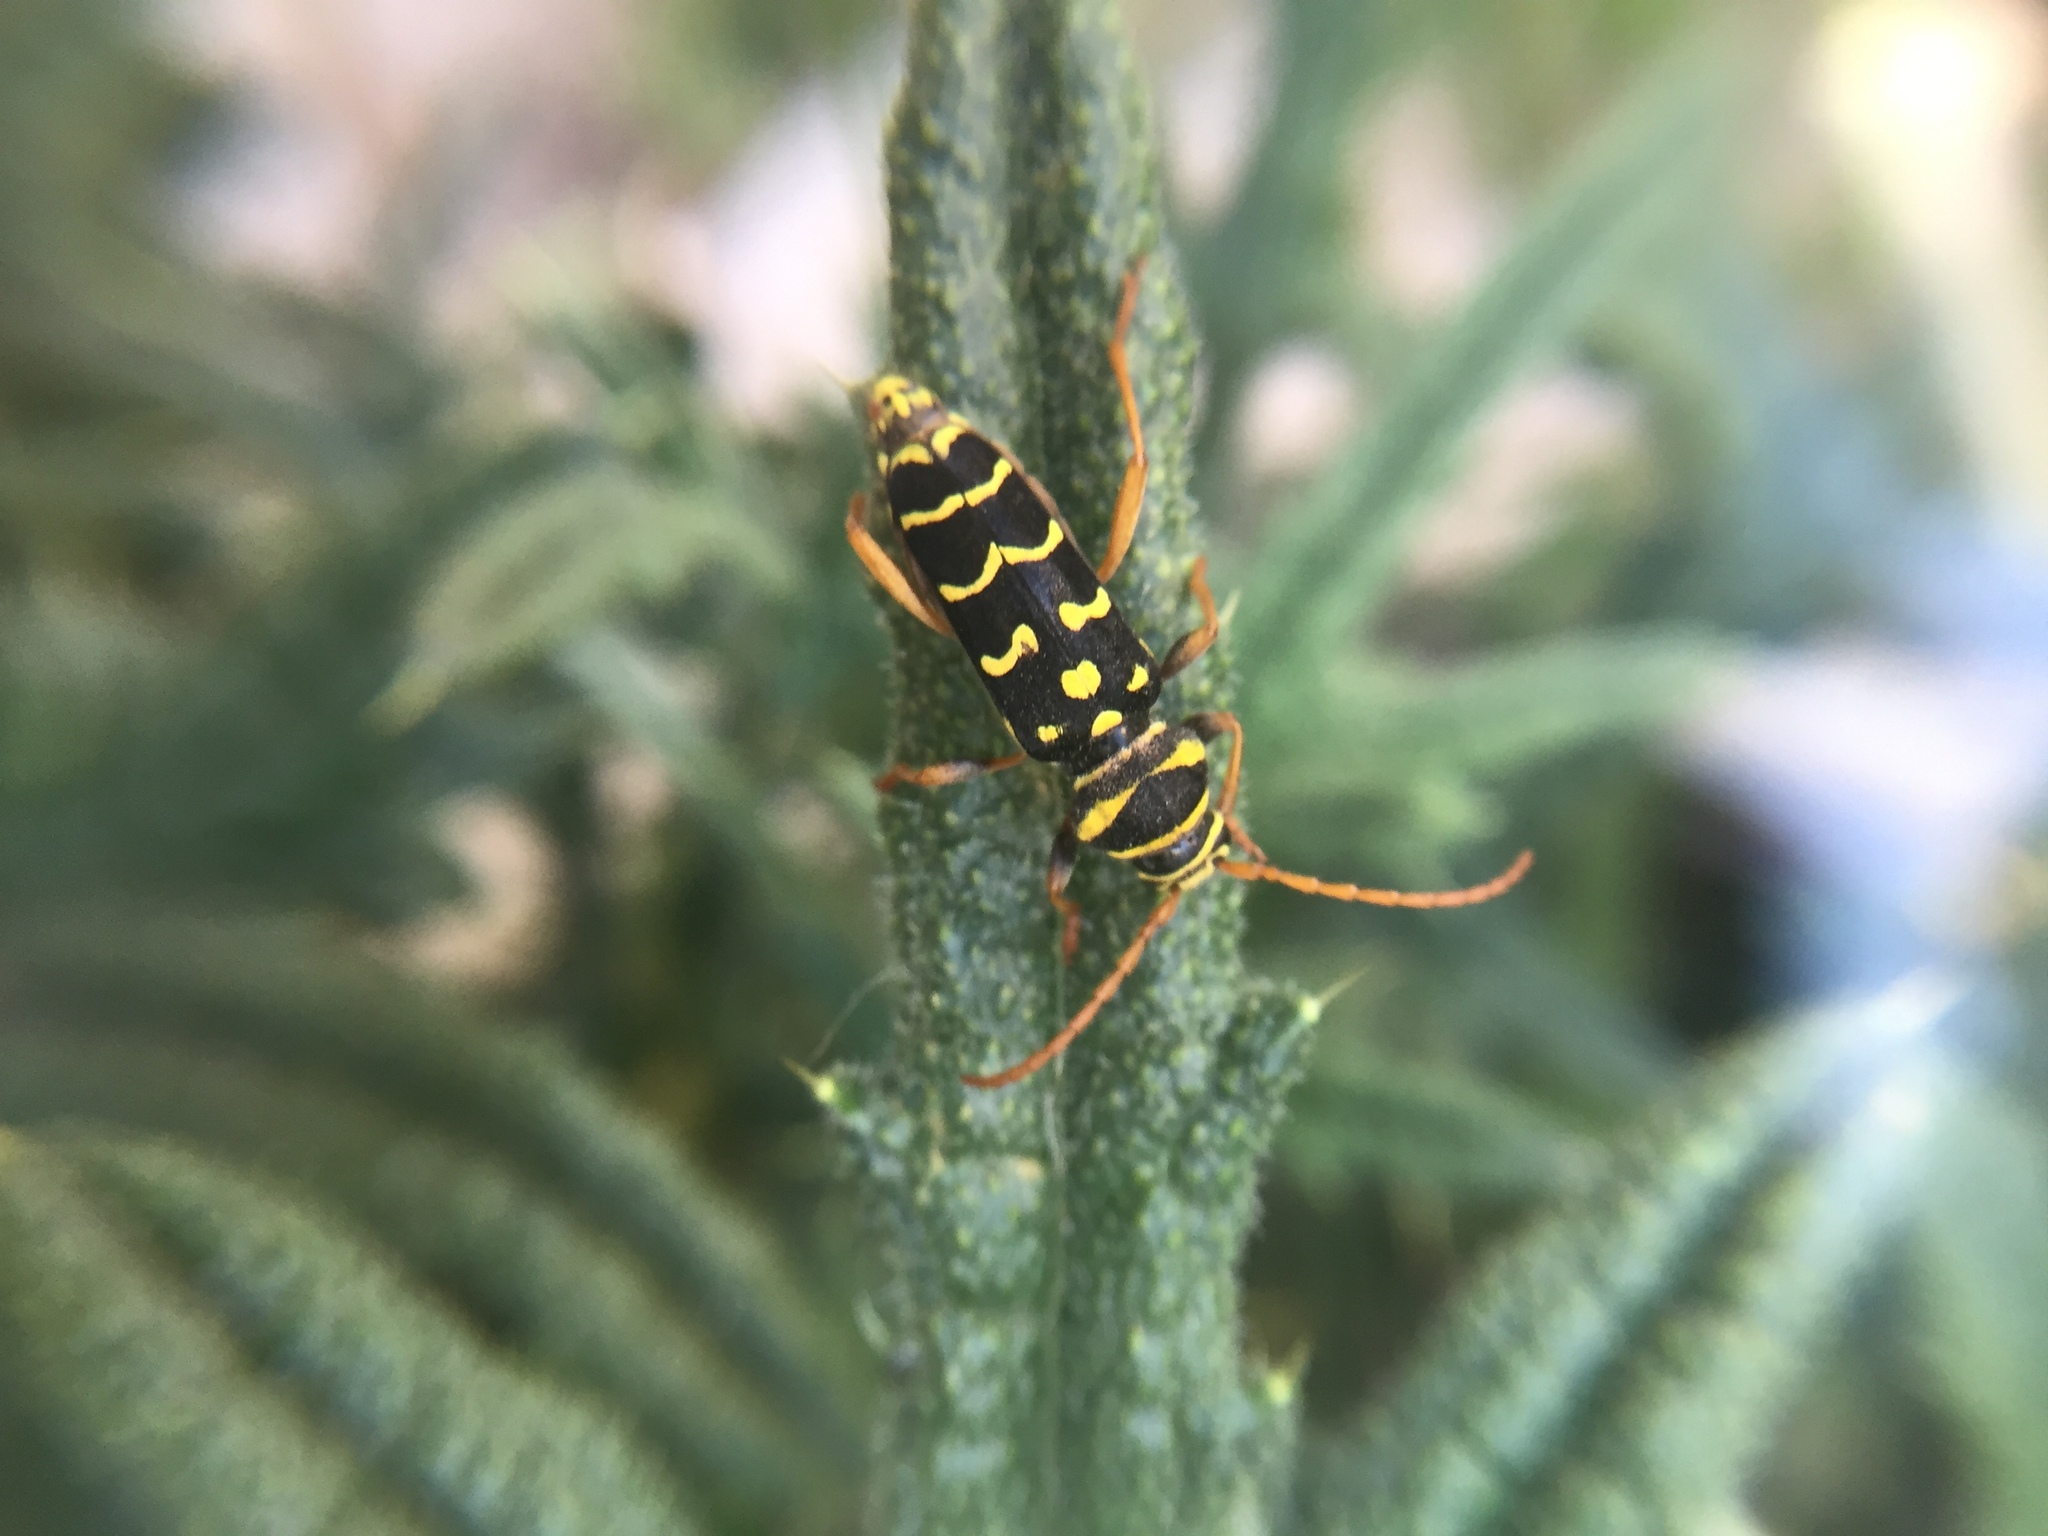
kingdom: Animalia
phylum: Arthropoda
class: Insecta
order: Coleoptera
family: Cerambycidae
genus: Plagionotus
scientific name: Plagionotus arcuatus
